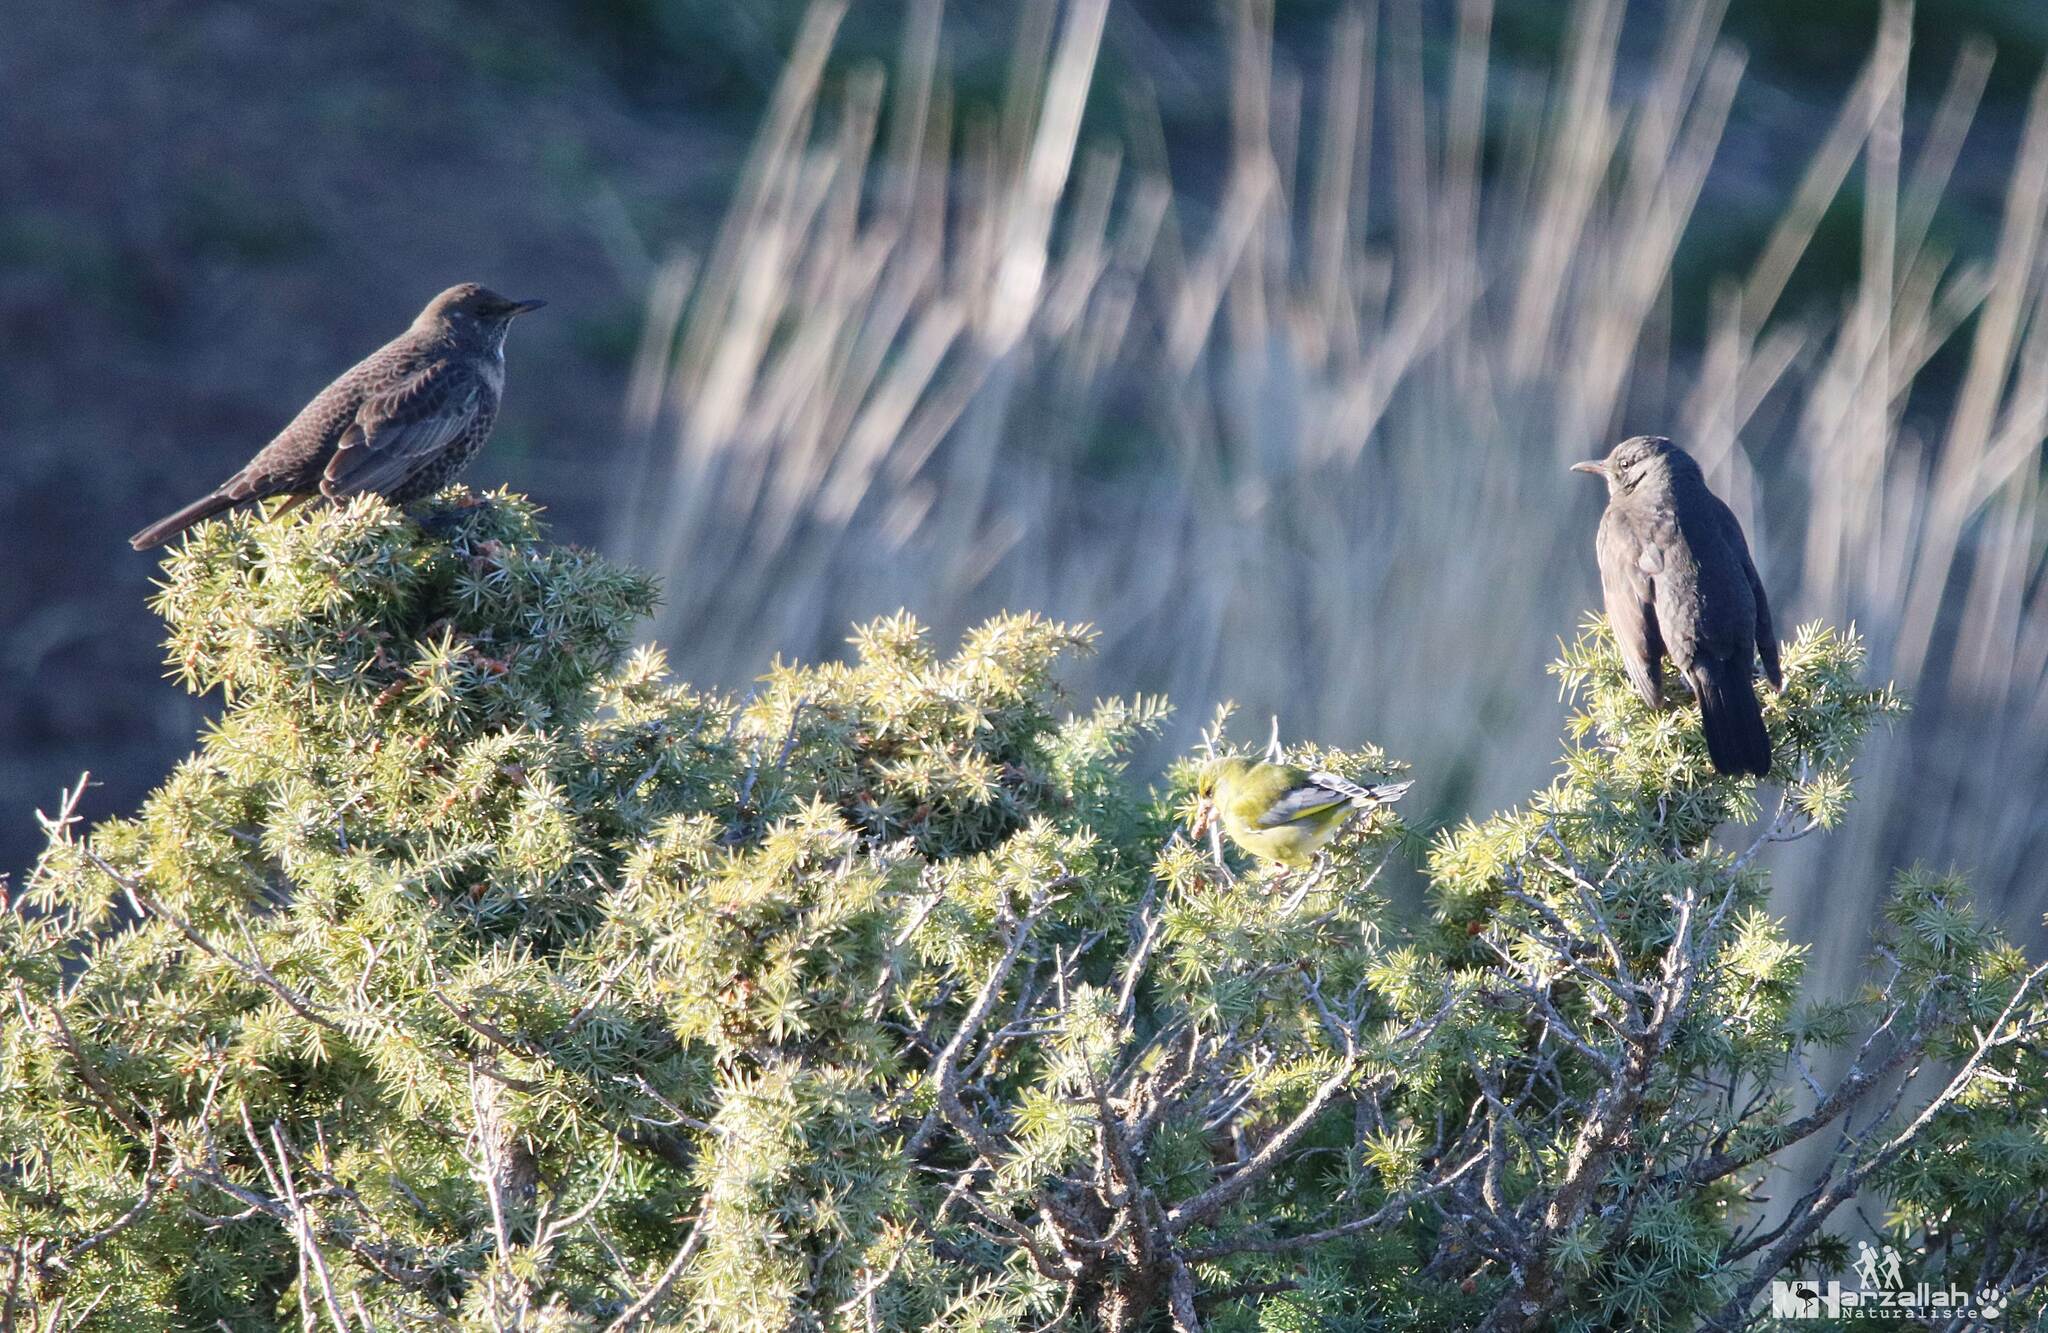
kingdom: Animalia
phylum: Chordata
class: Aves
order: Passeriformes
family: Turdidae
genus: Turdus
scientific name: Turdus torquatus
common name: Ring ouzel
